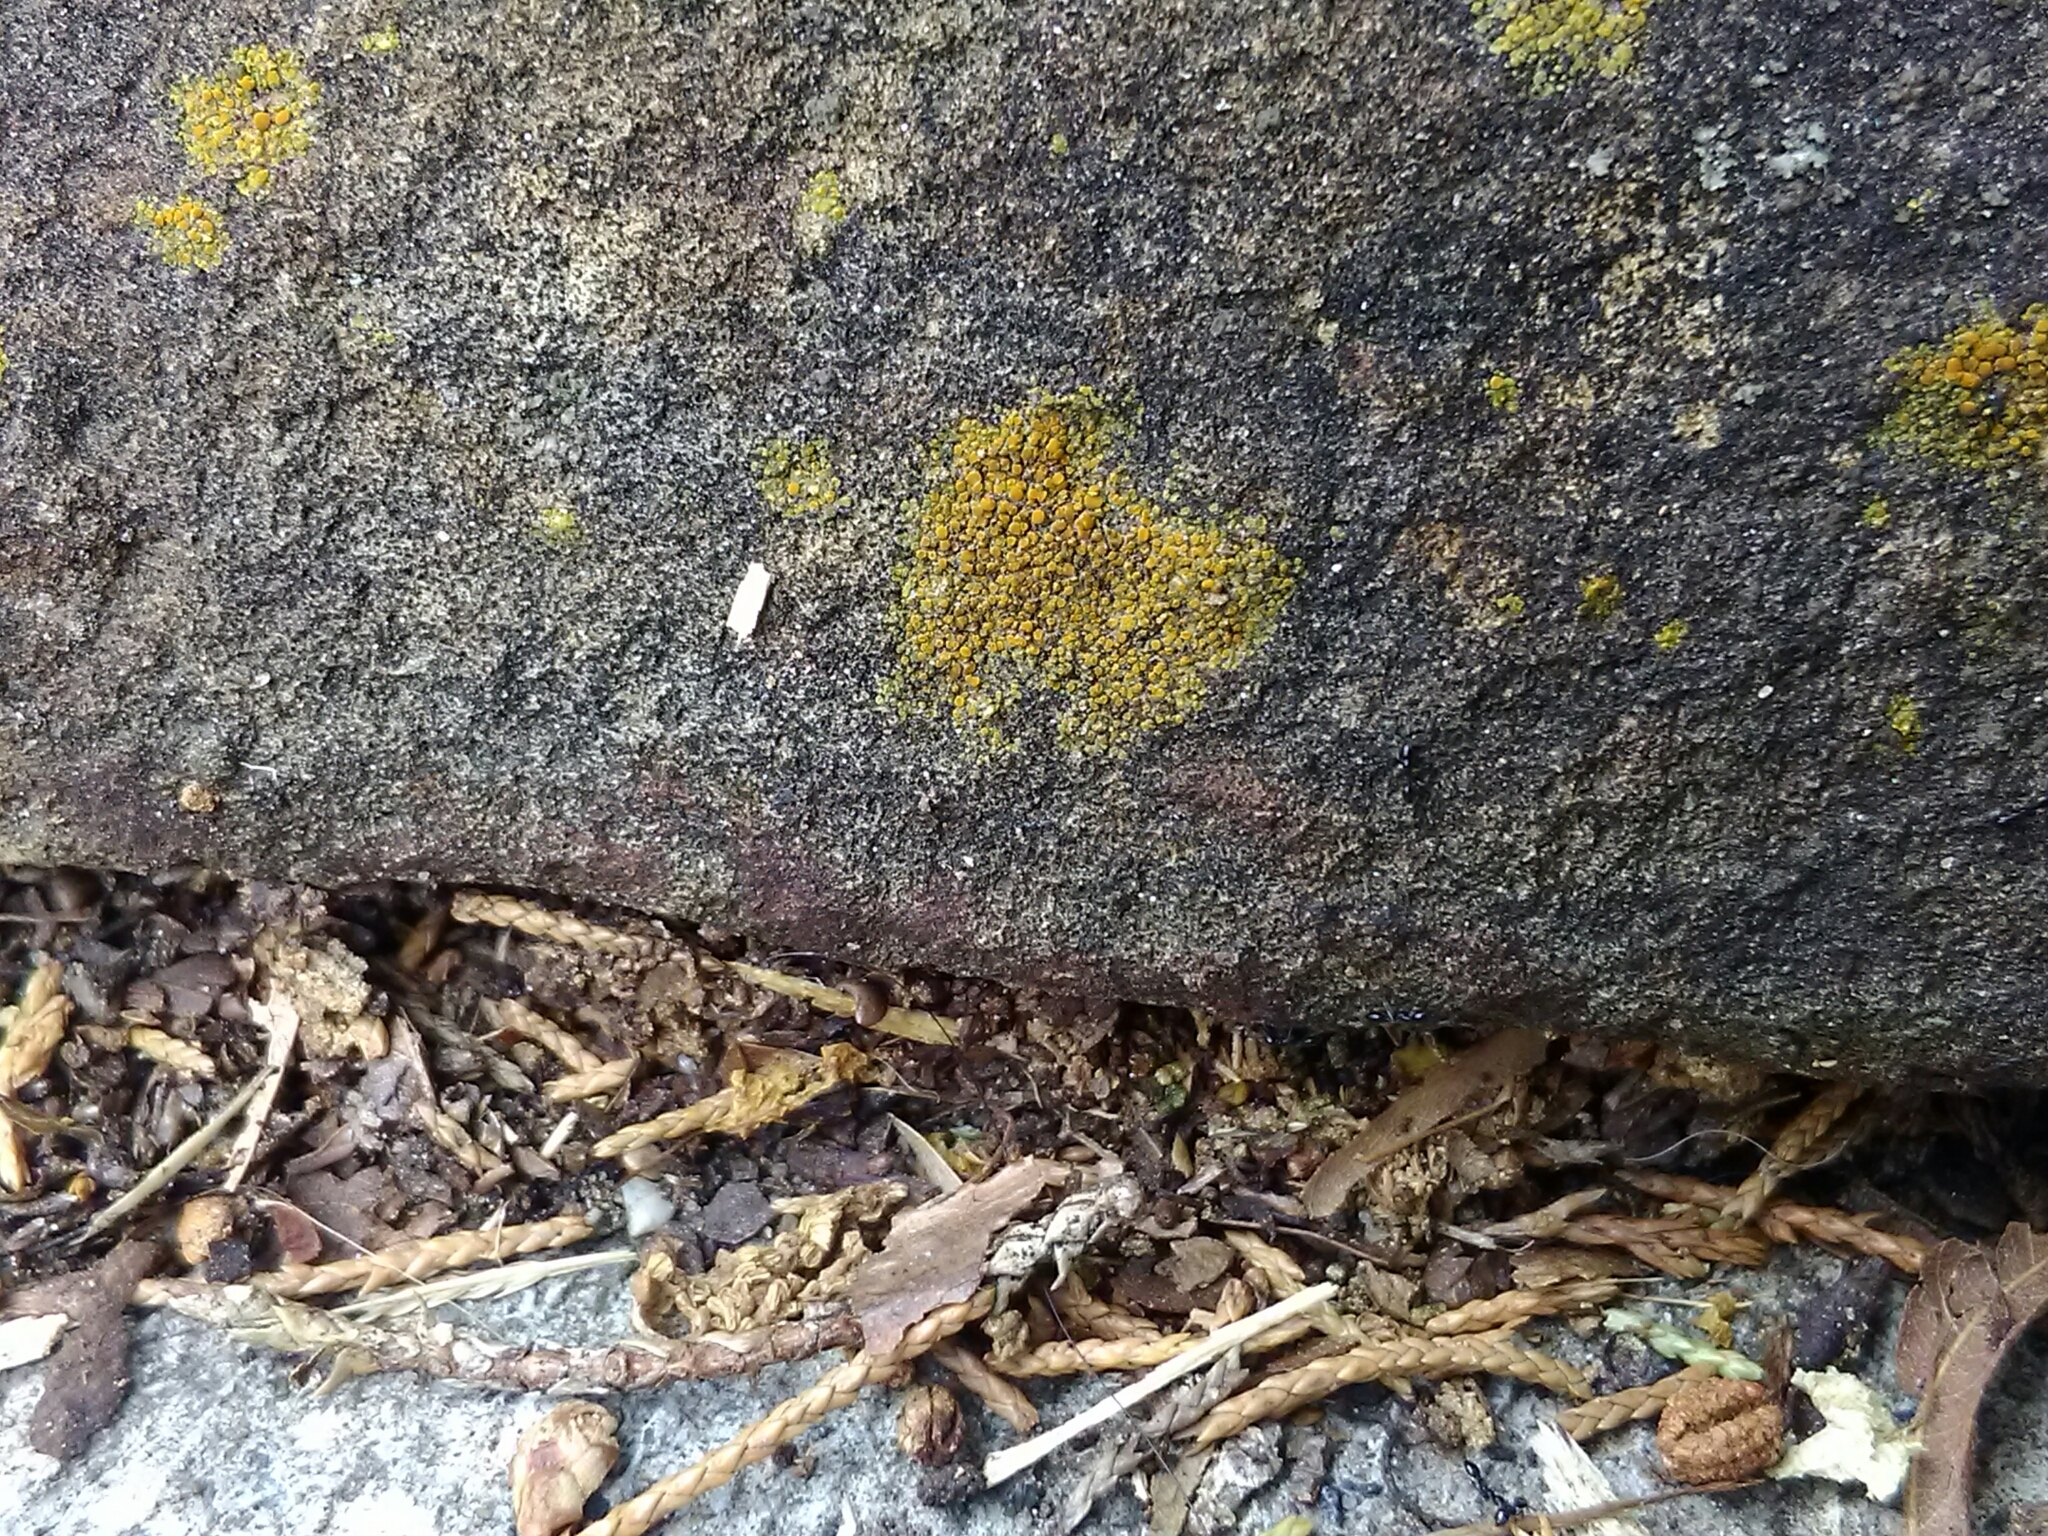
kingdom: Fungi
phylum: Ascomycota
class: Lecanoromycetes
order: Teloschistales
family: Teloschistaceae
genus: Gyalolechia
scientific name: Gyalolechia flavovirescens
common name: Sulphur firedot
